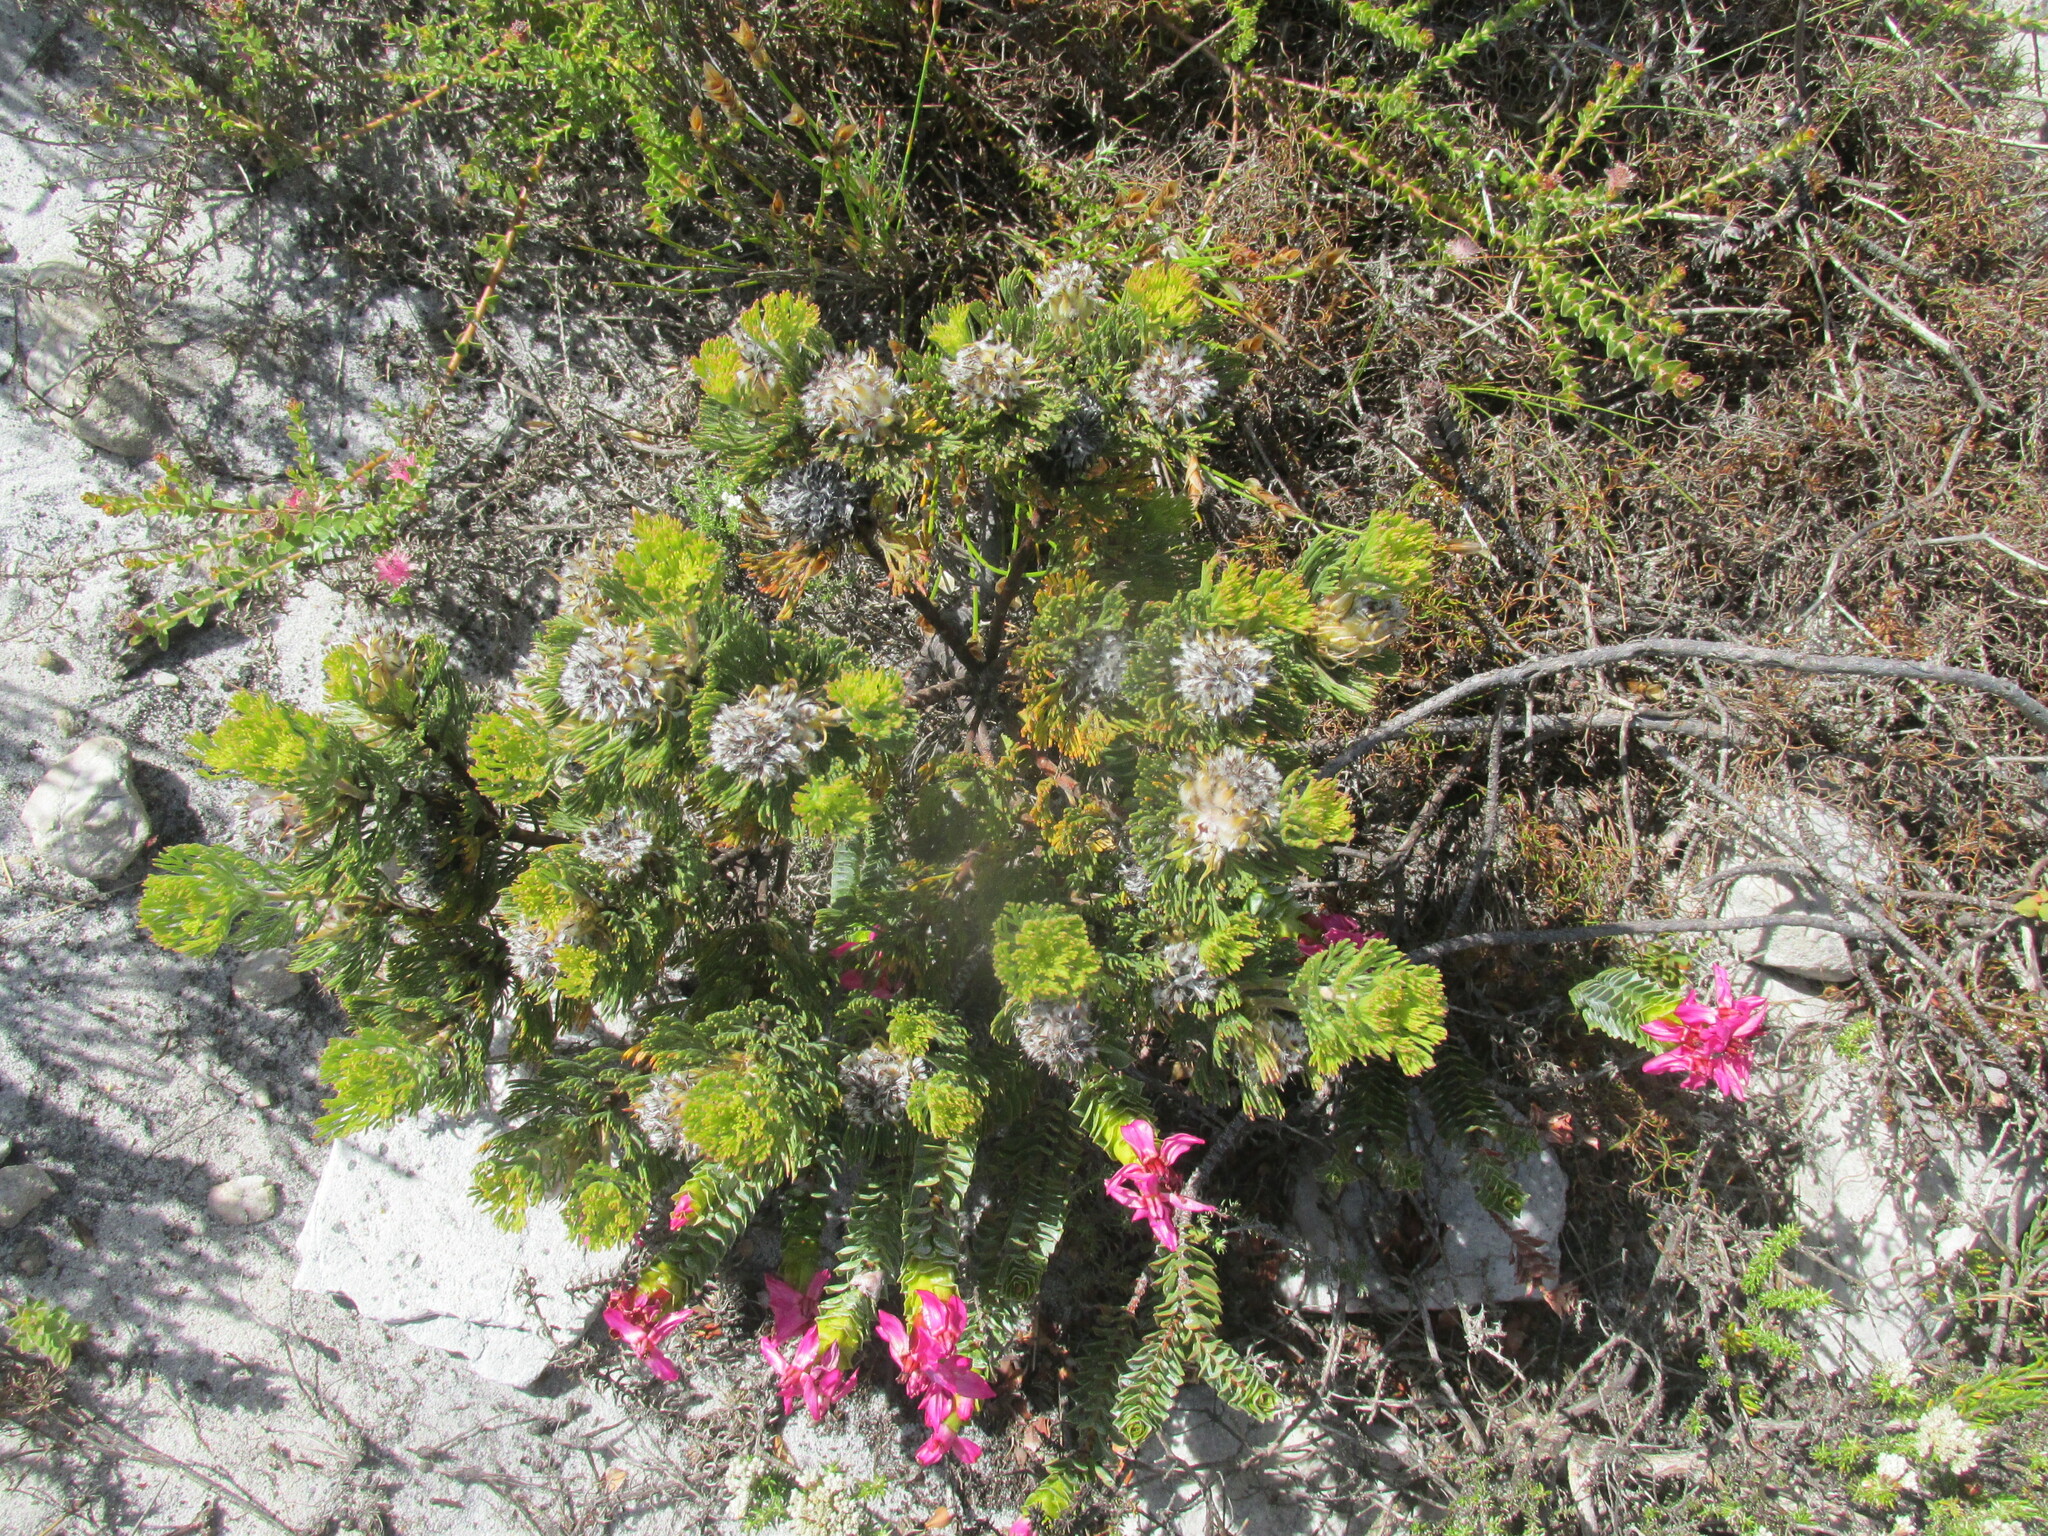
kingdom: Plantae
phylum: Tracheophyta
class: Magnoliopsida
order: Proteales
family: Proteaceae
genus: Serruria
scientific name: Serruria villosa
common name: Golden spiderhead
